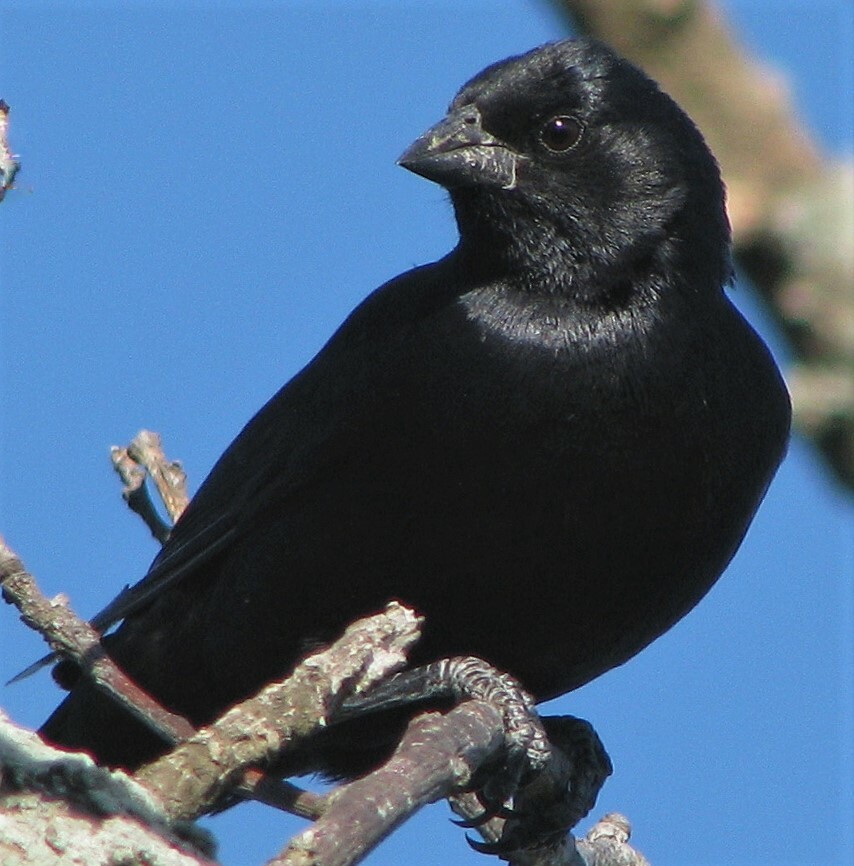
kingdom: Animalia
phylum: Chordata
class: Aves
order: Passeriformes
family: Icteridae
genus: Molothrus
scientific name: Molothrus rufoaxillaris
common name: Screaming cowbird
